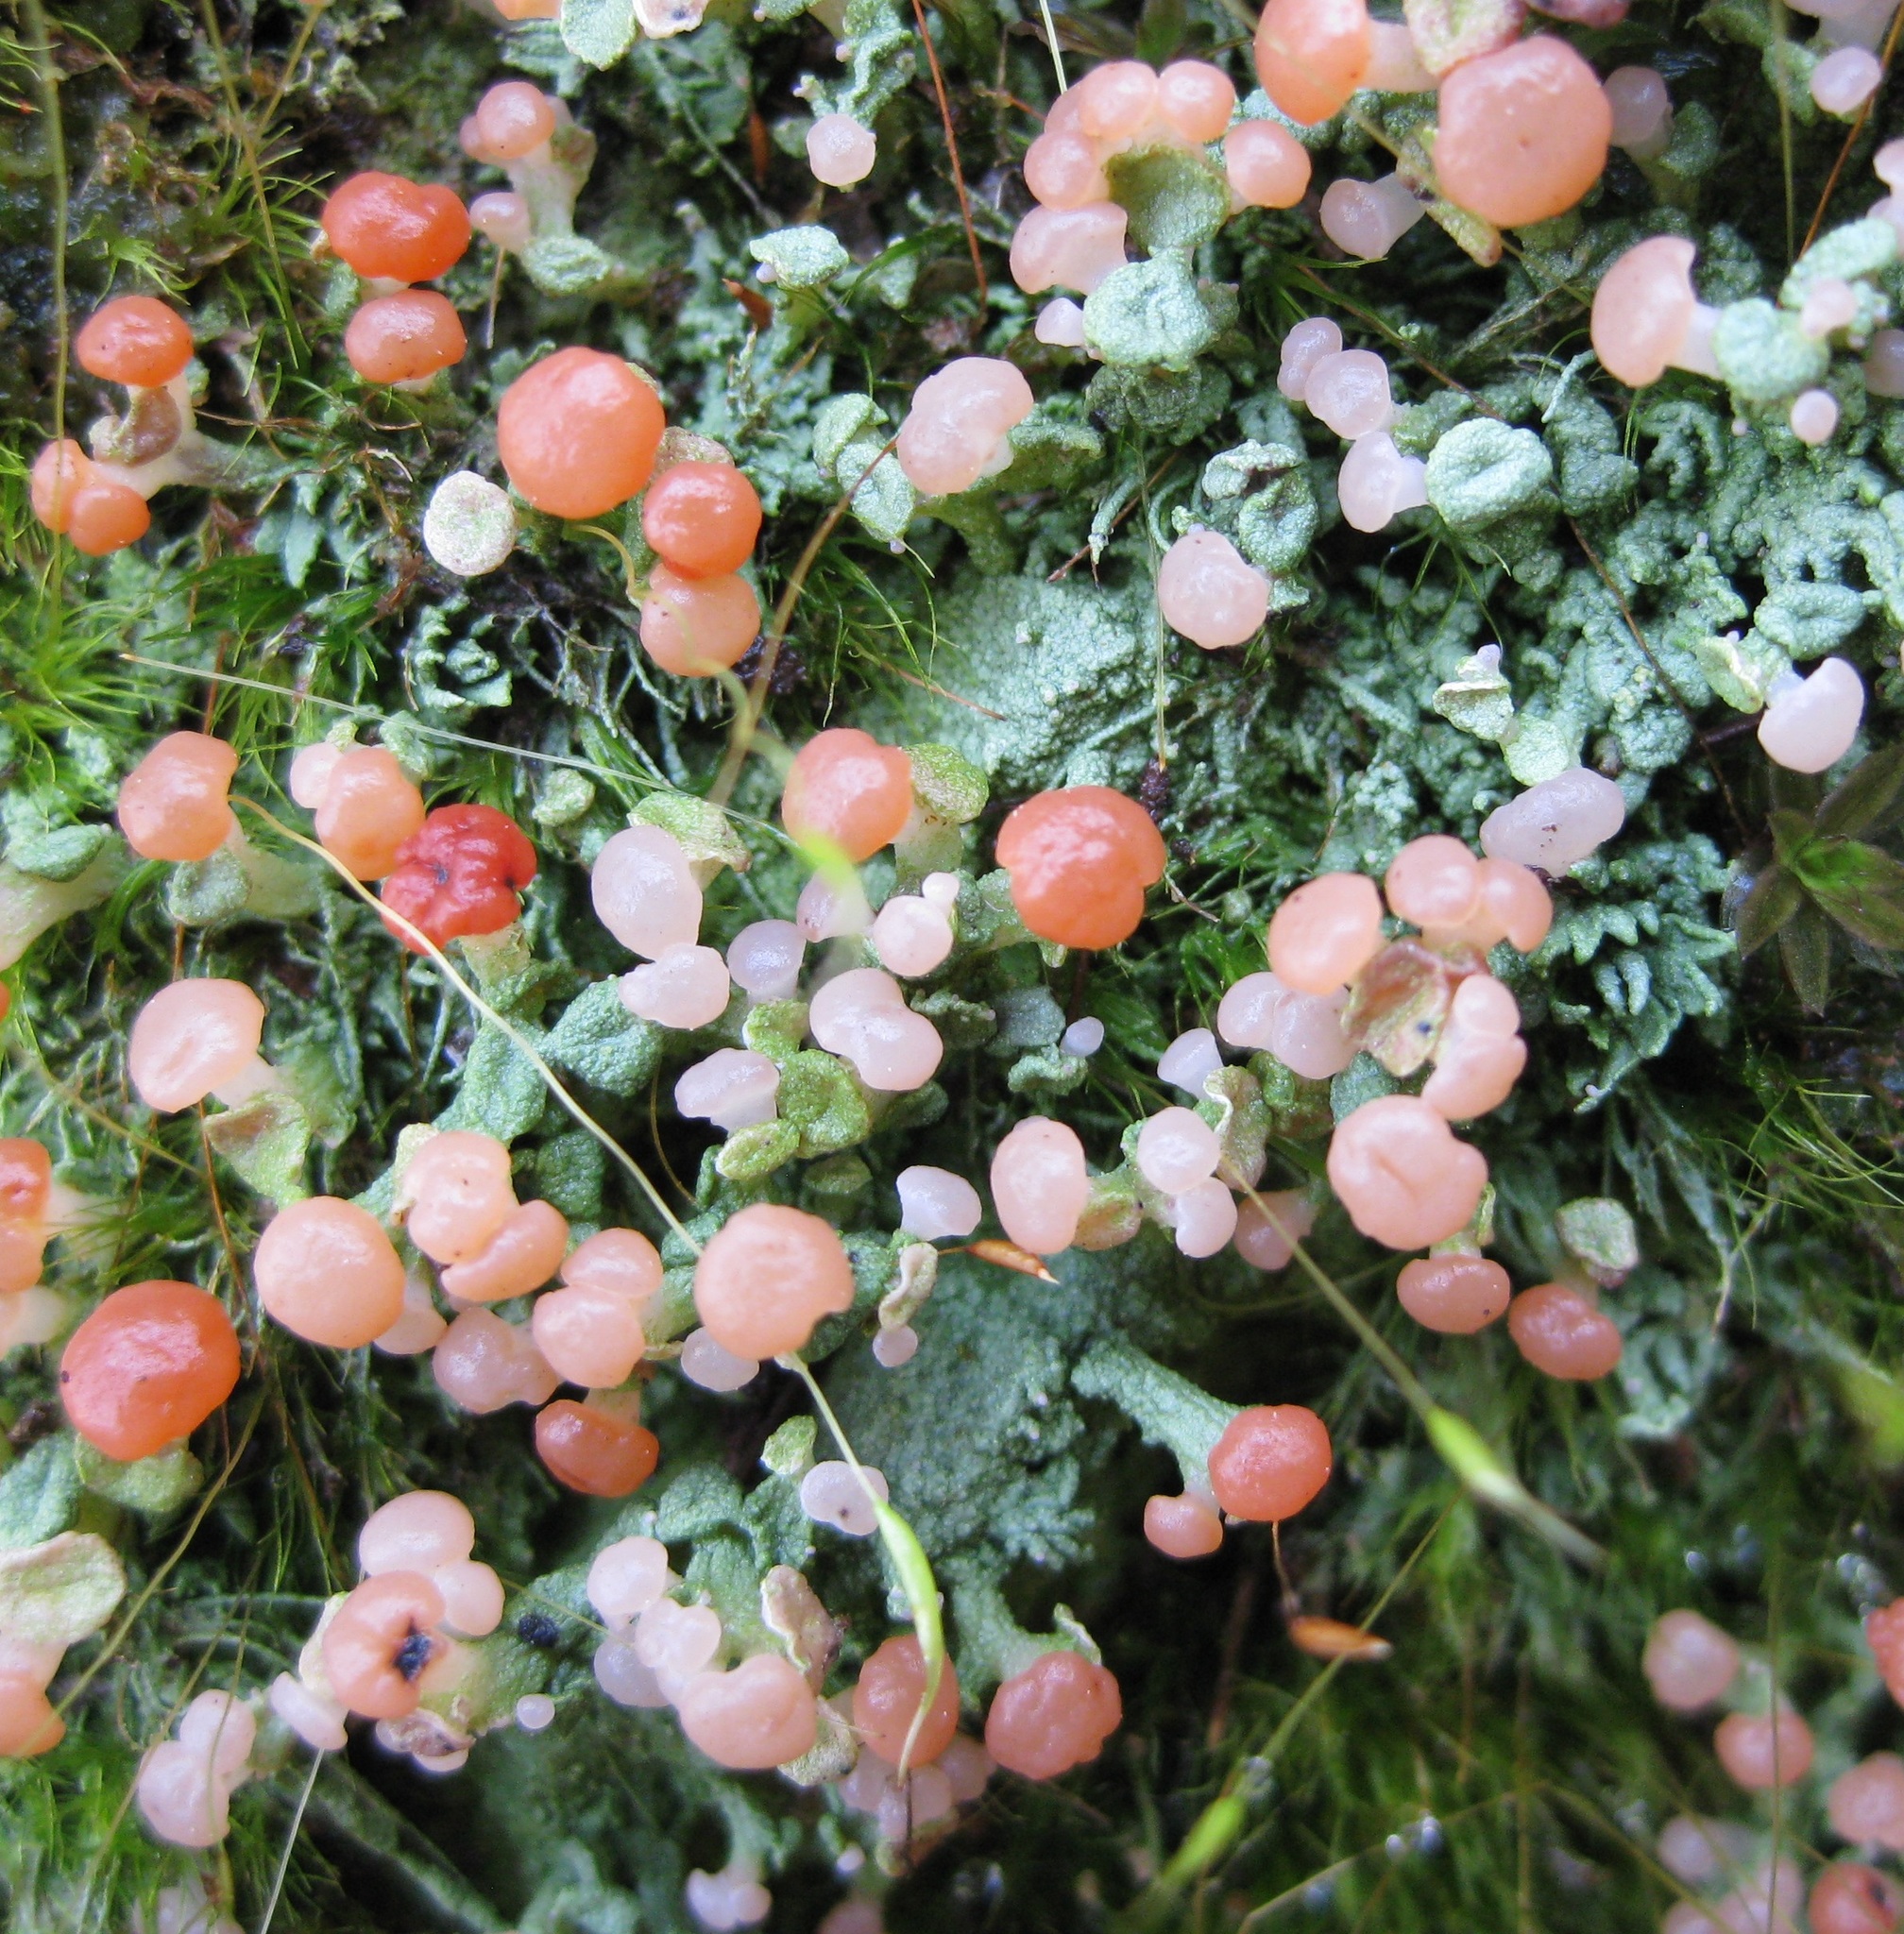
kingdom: Fungi
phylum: Ascomycota
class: Lecanoromycetes
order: Baeomycetales
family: Baeomycetaceae
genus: Baeomyces
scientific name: Baeomyces heteromorphus
